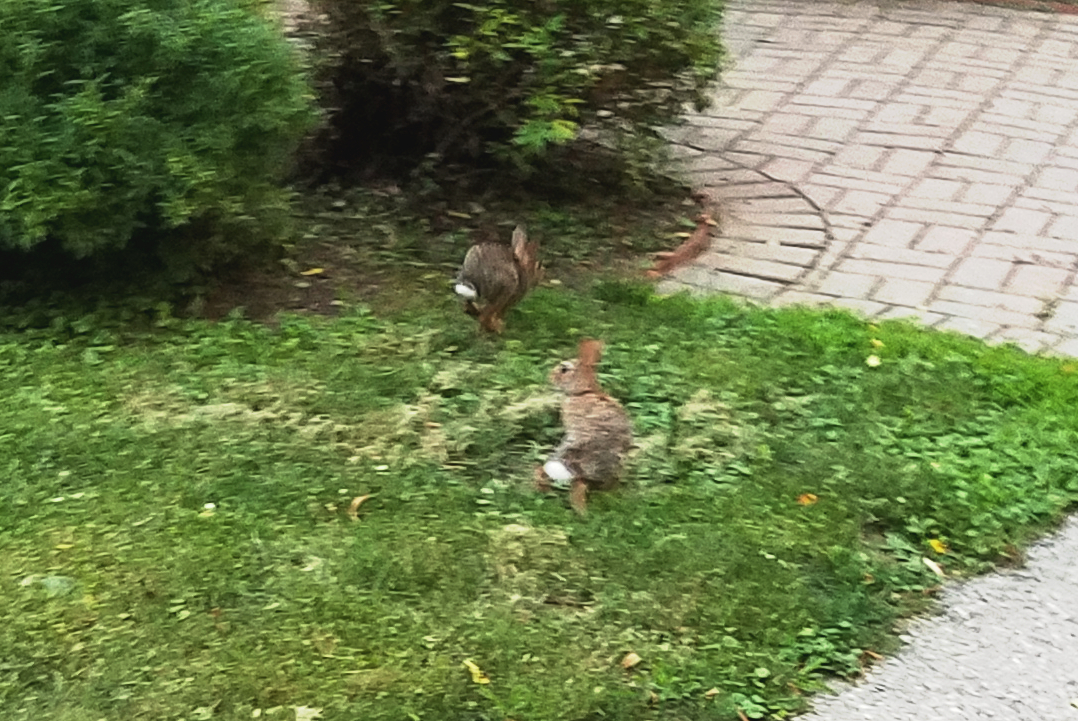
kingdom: Animalia
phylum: Chordata
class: Mammalia
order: Lagomorpha
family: Leporidae
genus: Sylvilagus
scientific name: Sylvilagus floridanus
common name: Eastern cottontail
